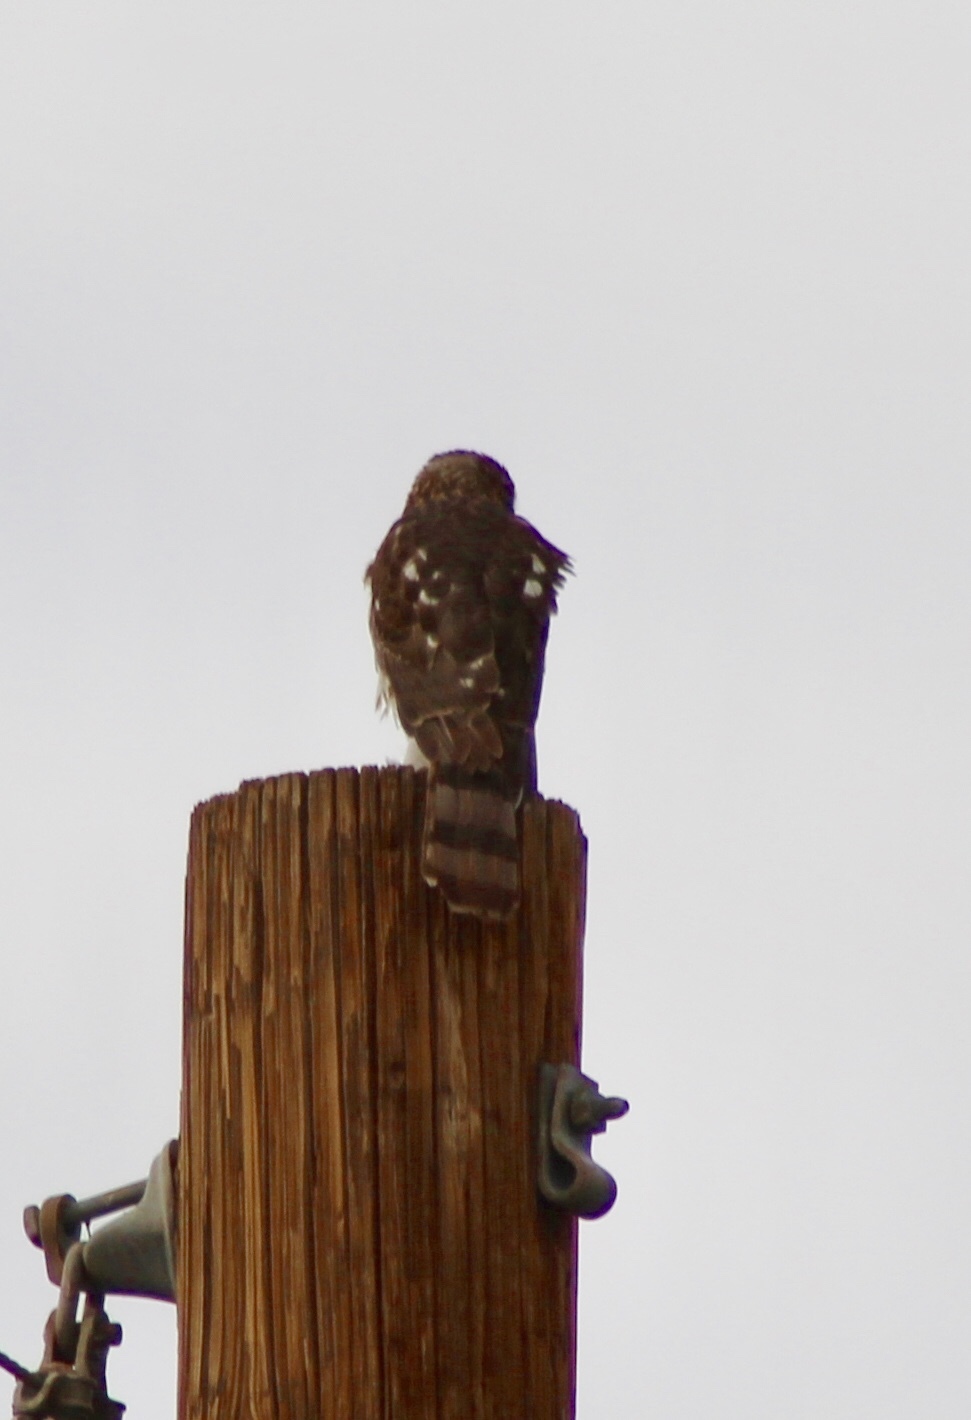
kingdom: Animalia
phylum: Chordata
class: Aves
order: Accipitriformes
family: Accipitridae
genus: Accipiter
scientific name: Accipiter cooperii
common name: Cooper's hawk
